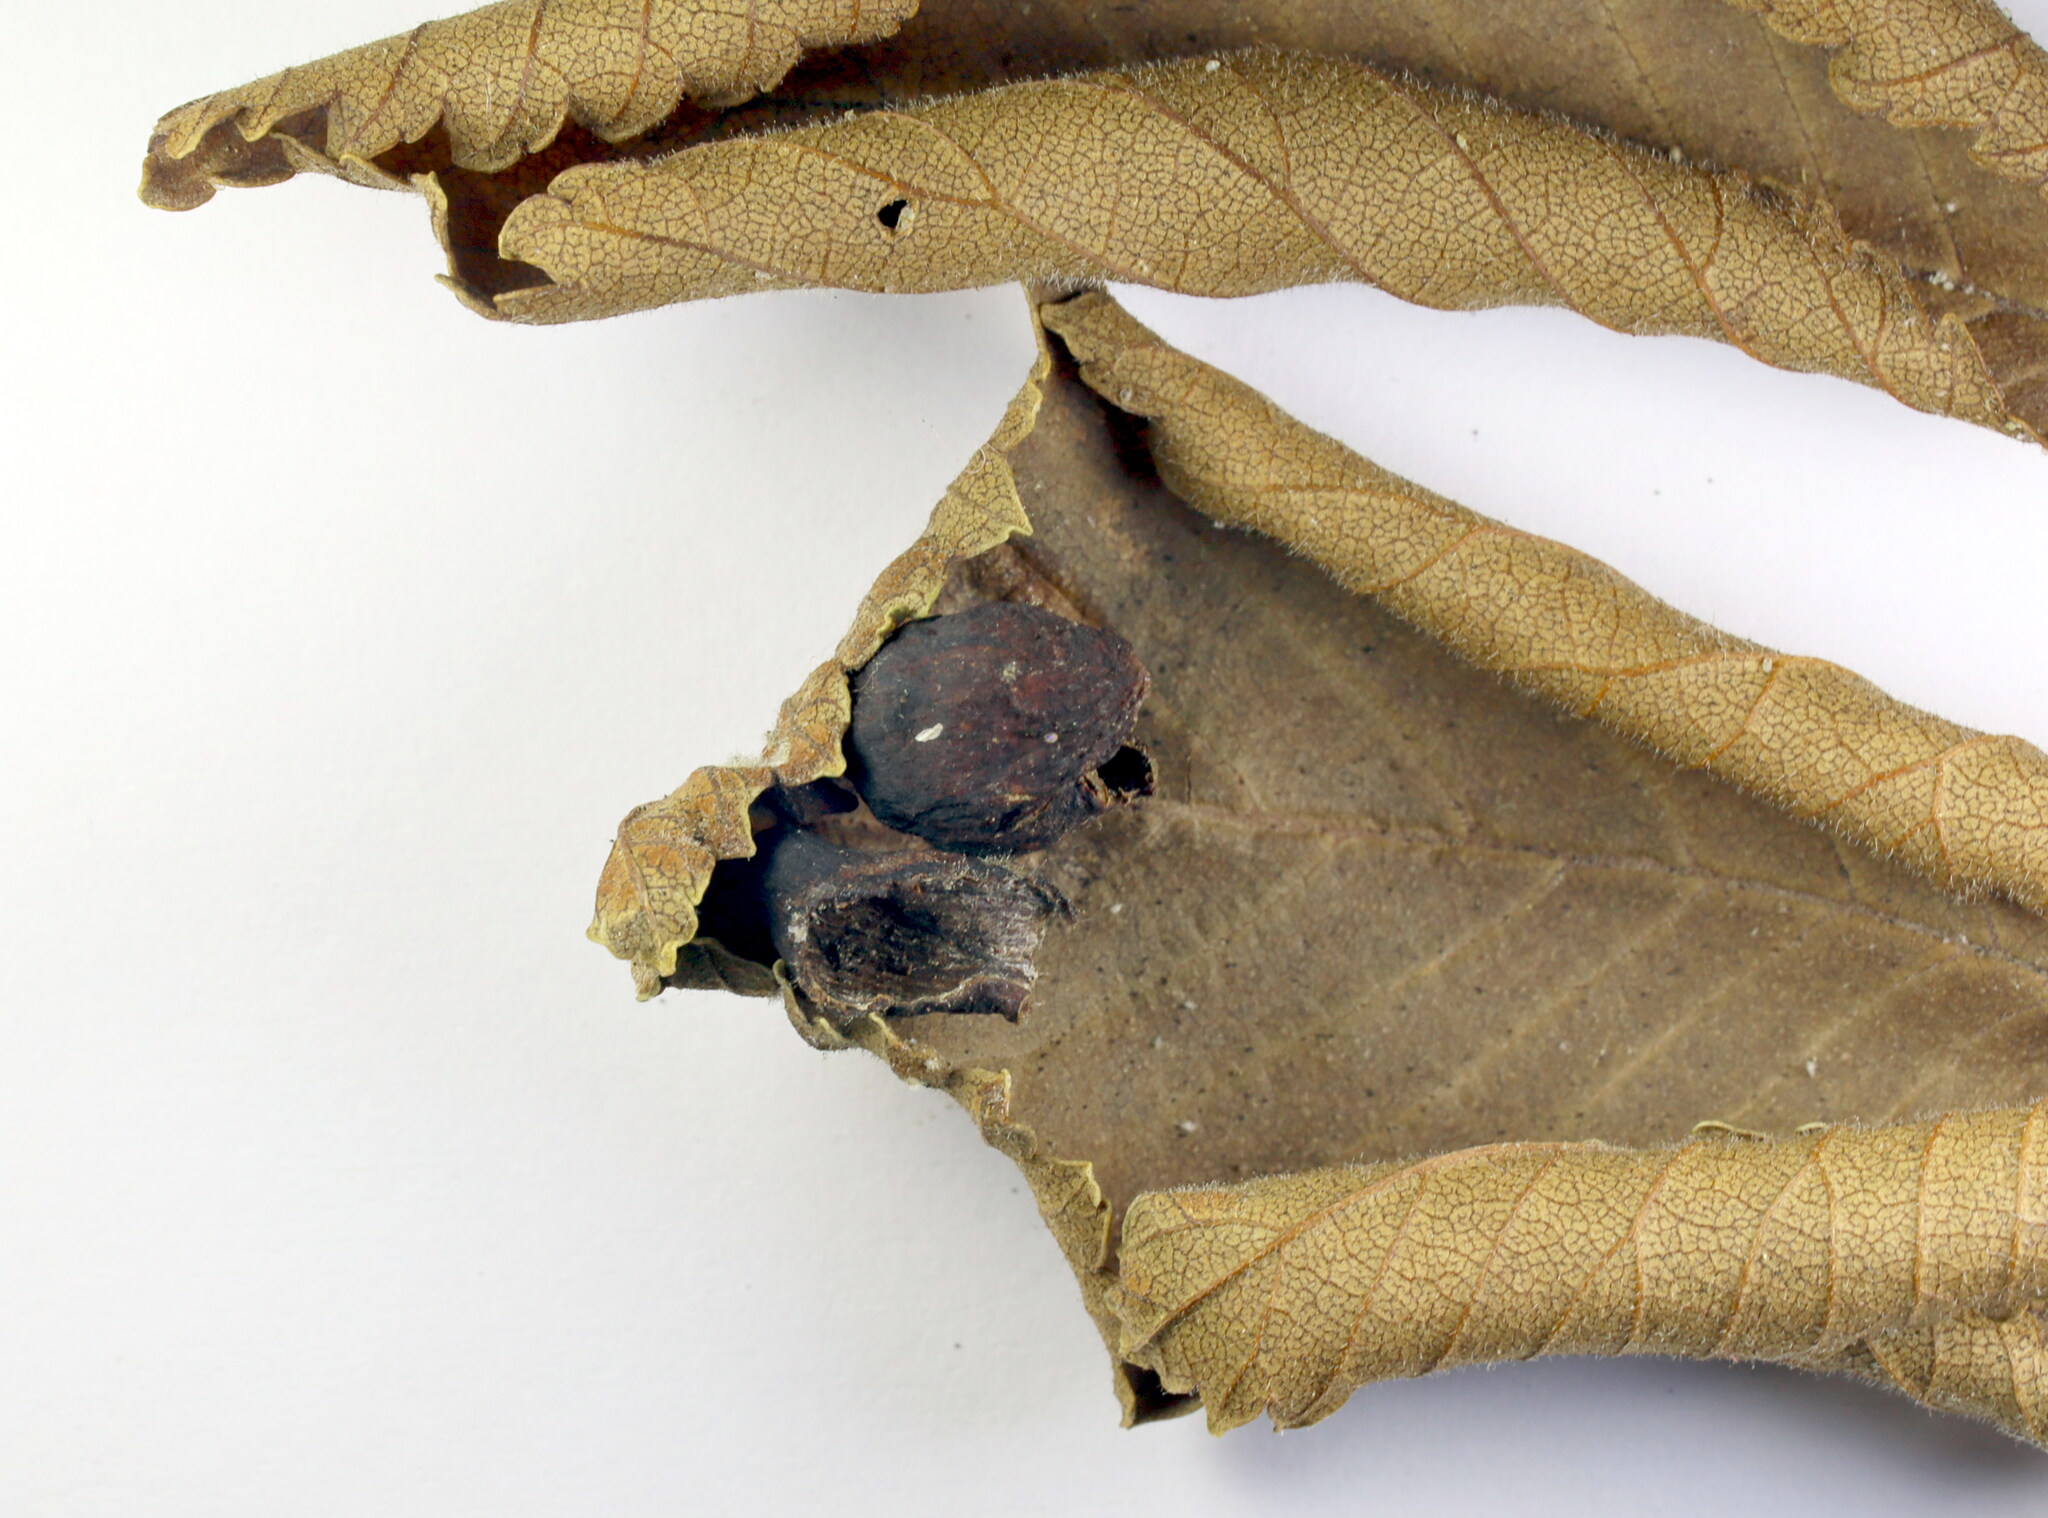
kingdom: Animalia
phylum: Arthropoda
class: Insecta
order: Hemiptera
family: Aphididae
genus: Tetraneura
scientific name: Tetraneura ulmi
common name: Aphid
